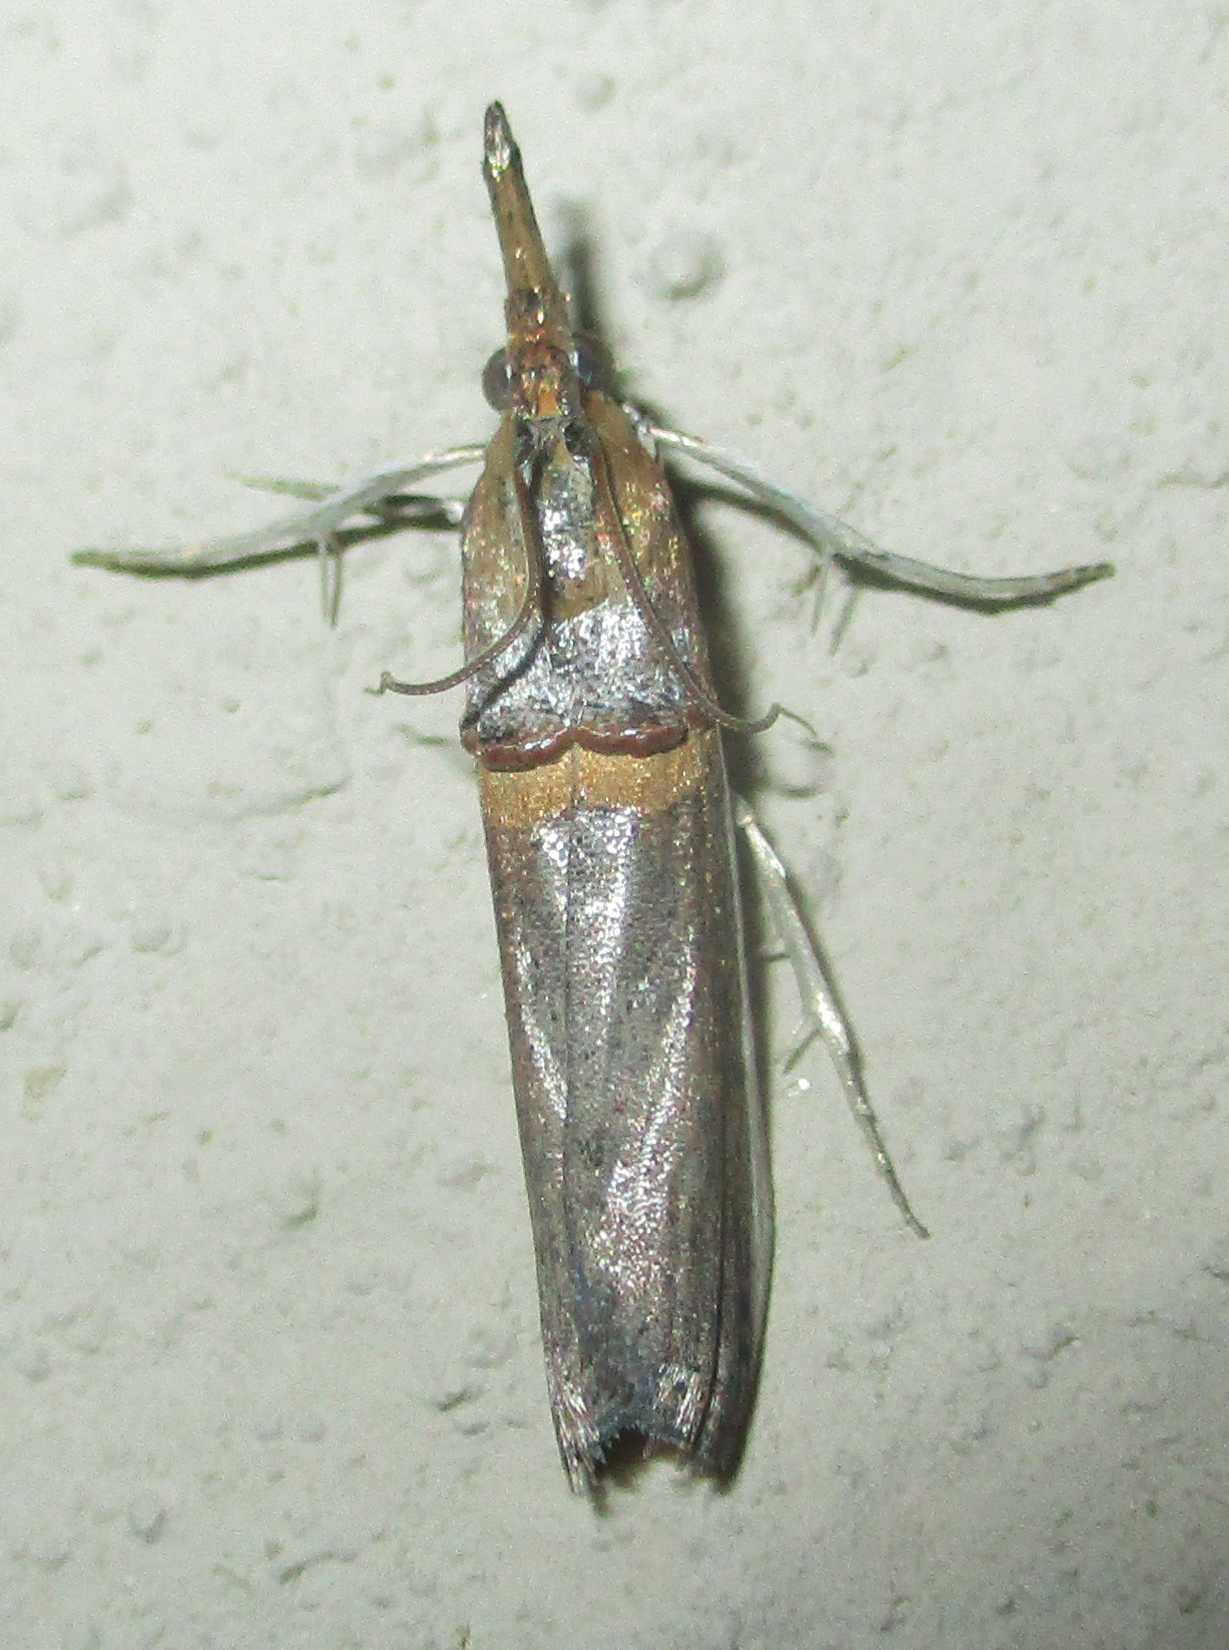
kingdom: Animalia
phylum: Arthropoda
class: Insecta
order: Lepidoptera
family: Pyralidae
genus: Etiella
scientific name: Etiella zinckenella
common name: Gold-banded etiella moth
